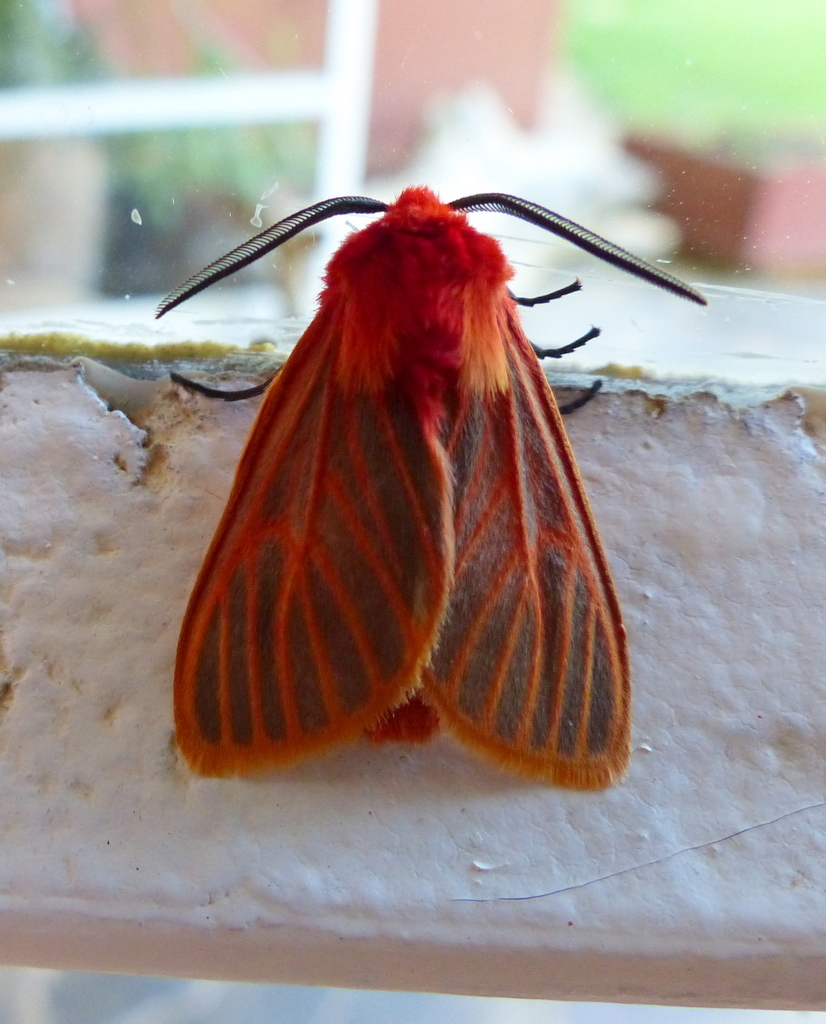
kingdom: Animalia
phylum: Arthropoda
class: Insecta
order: Lepidoptera
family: Erebidae
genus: Automolis
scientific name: Automolis lateritia
